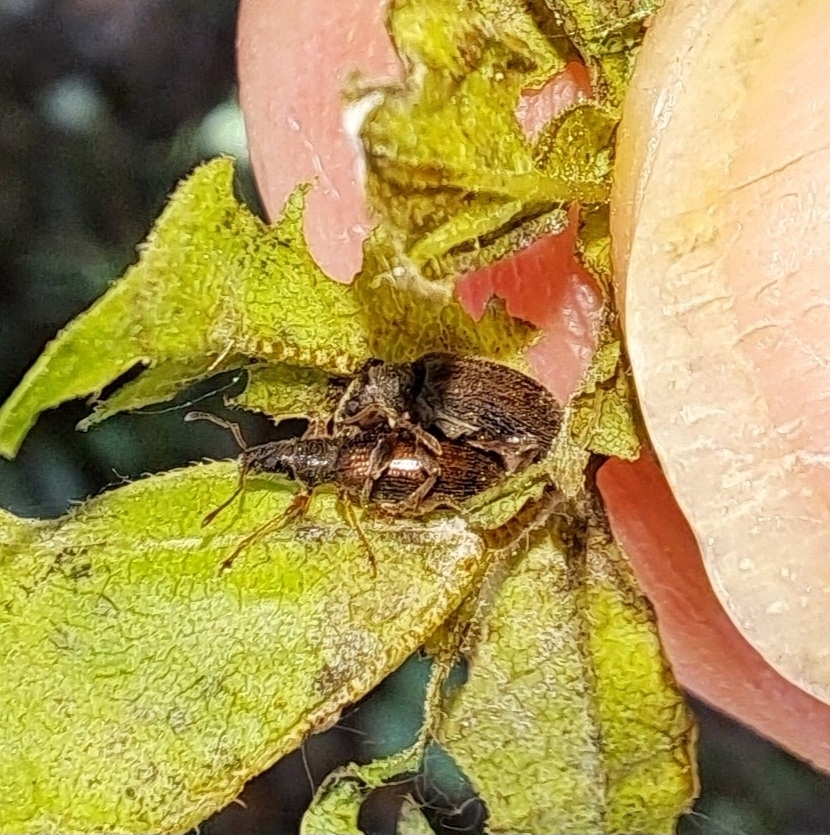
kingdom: Animalia
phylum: Arthropoda
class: Insecta
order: Coleoptera
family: Curculionidae
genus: Phyllobius
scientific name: Phyllobius oblongus
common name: Brown leaf weevil
